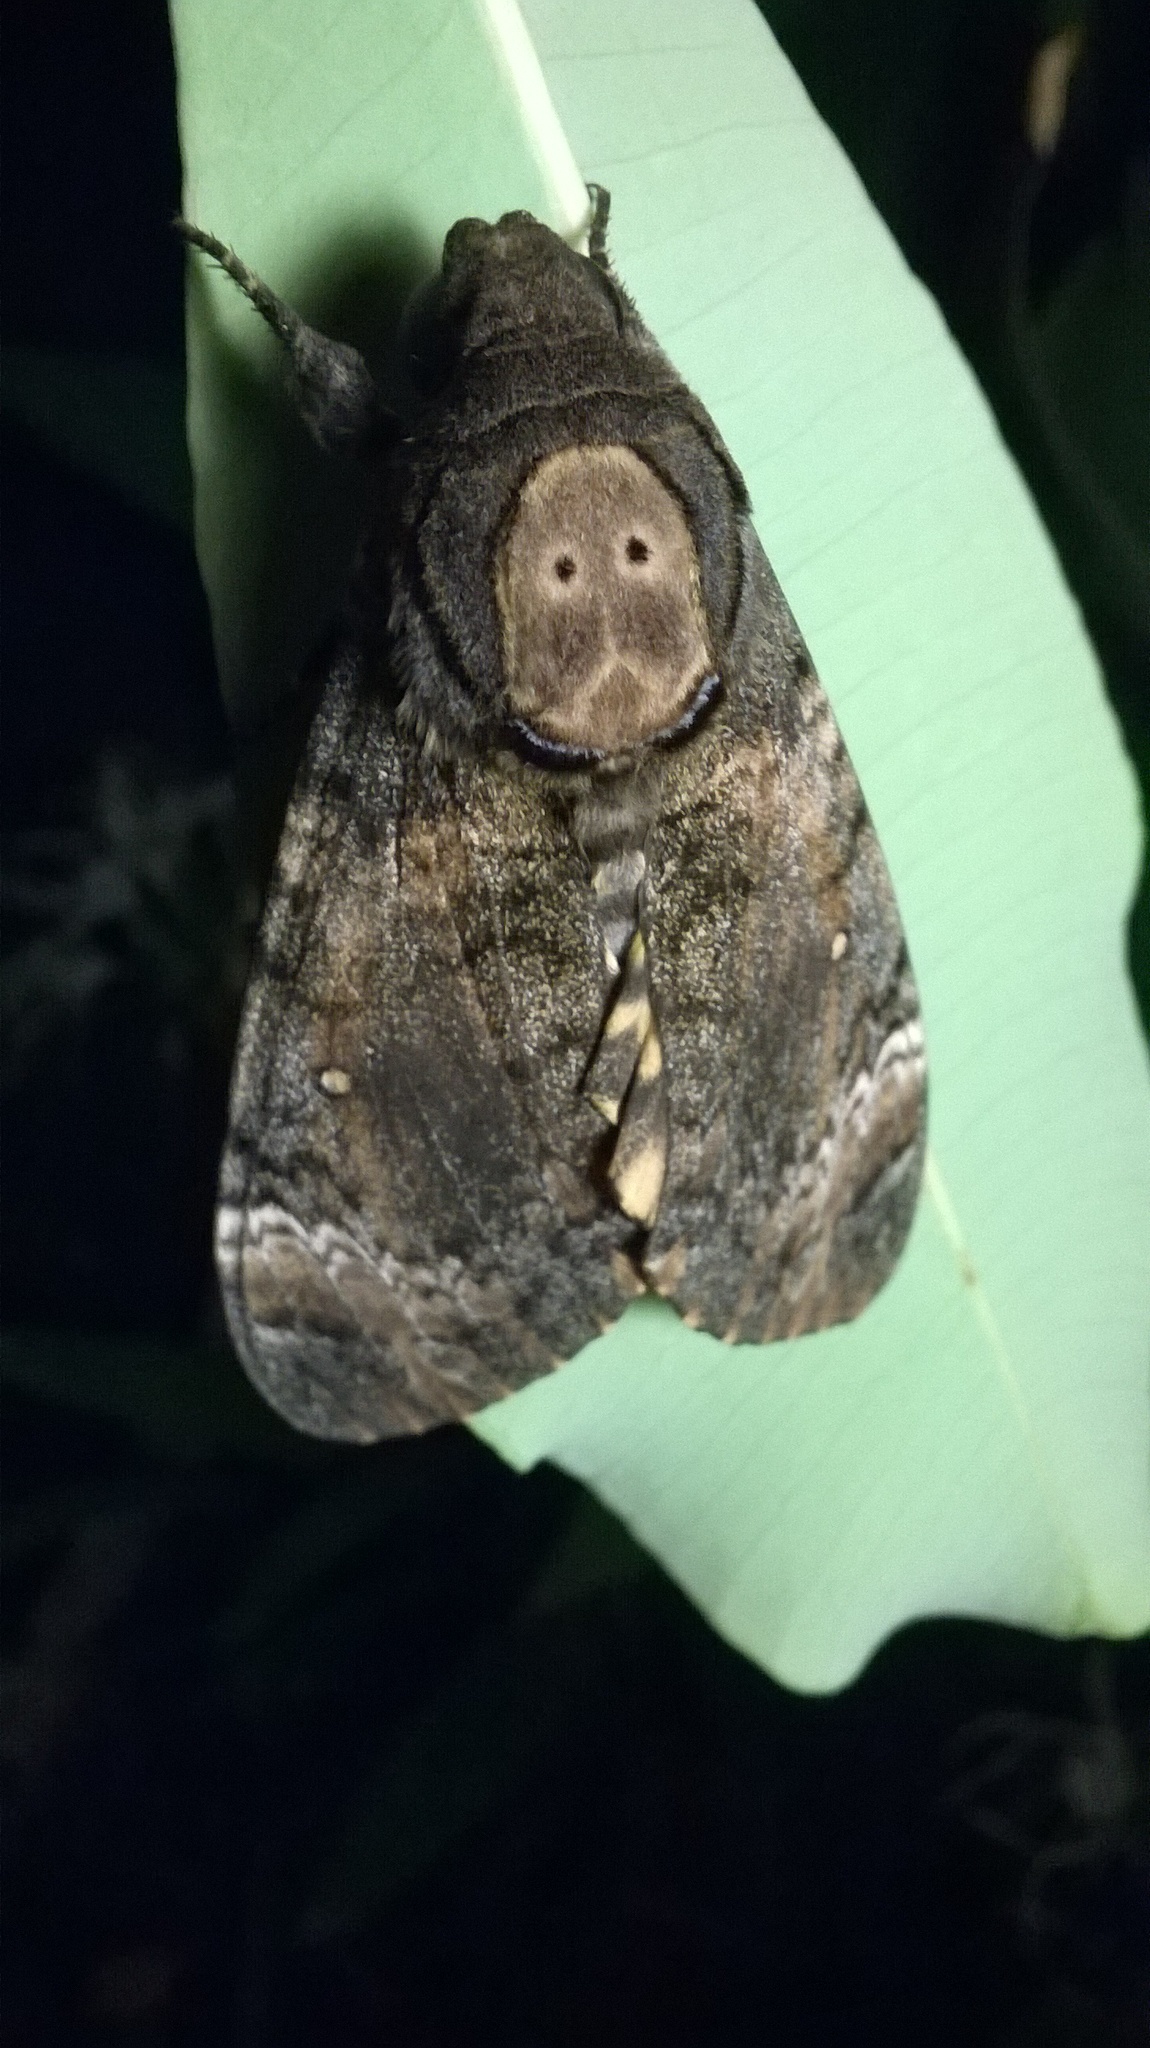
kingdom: Animalia
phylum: Arthropoda
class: Insecta
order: Lepidoptera
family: Sphingidae
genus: Acherontia
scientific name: Acherontia styx
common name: Death's-head hawk moth
